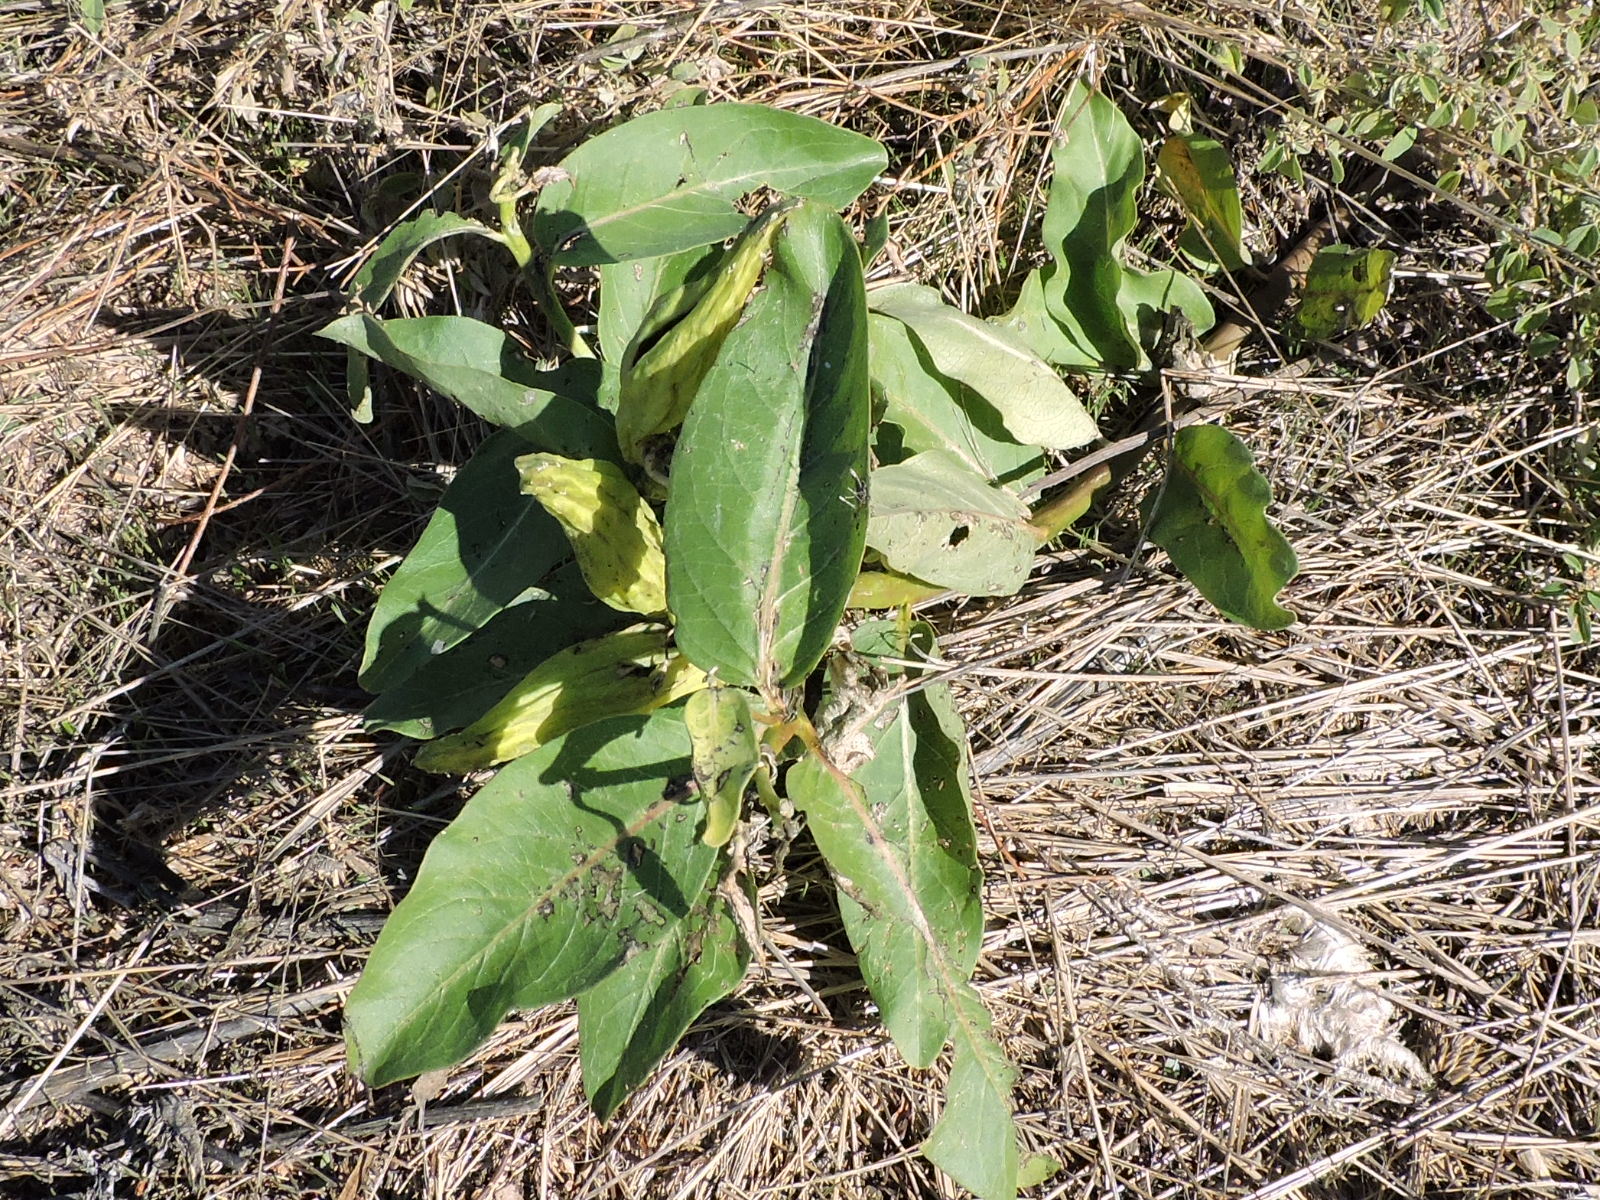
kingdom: Plantae
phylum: Tracheophyta
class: Magnoliopsida
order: Gentianales
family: Apocynaceae
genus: Asclepias
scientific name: Asclepias viridis
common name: Antelope-horns
